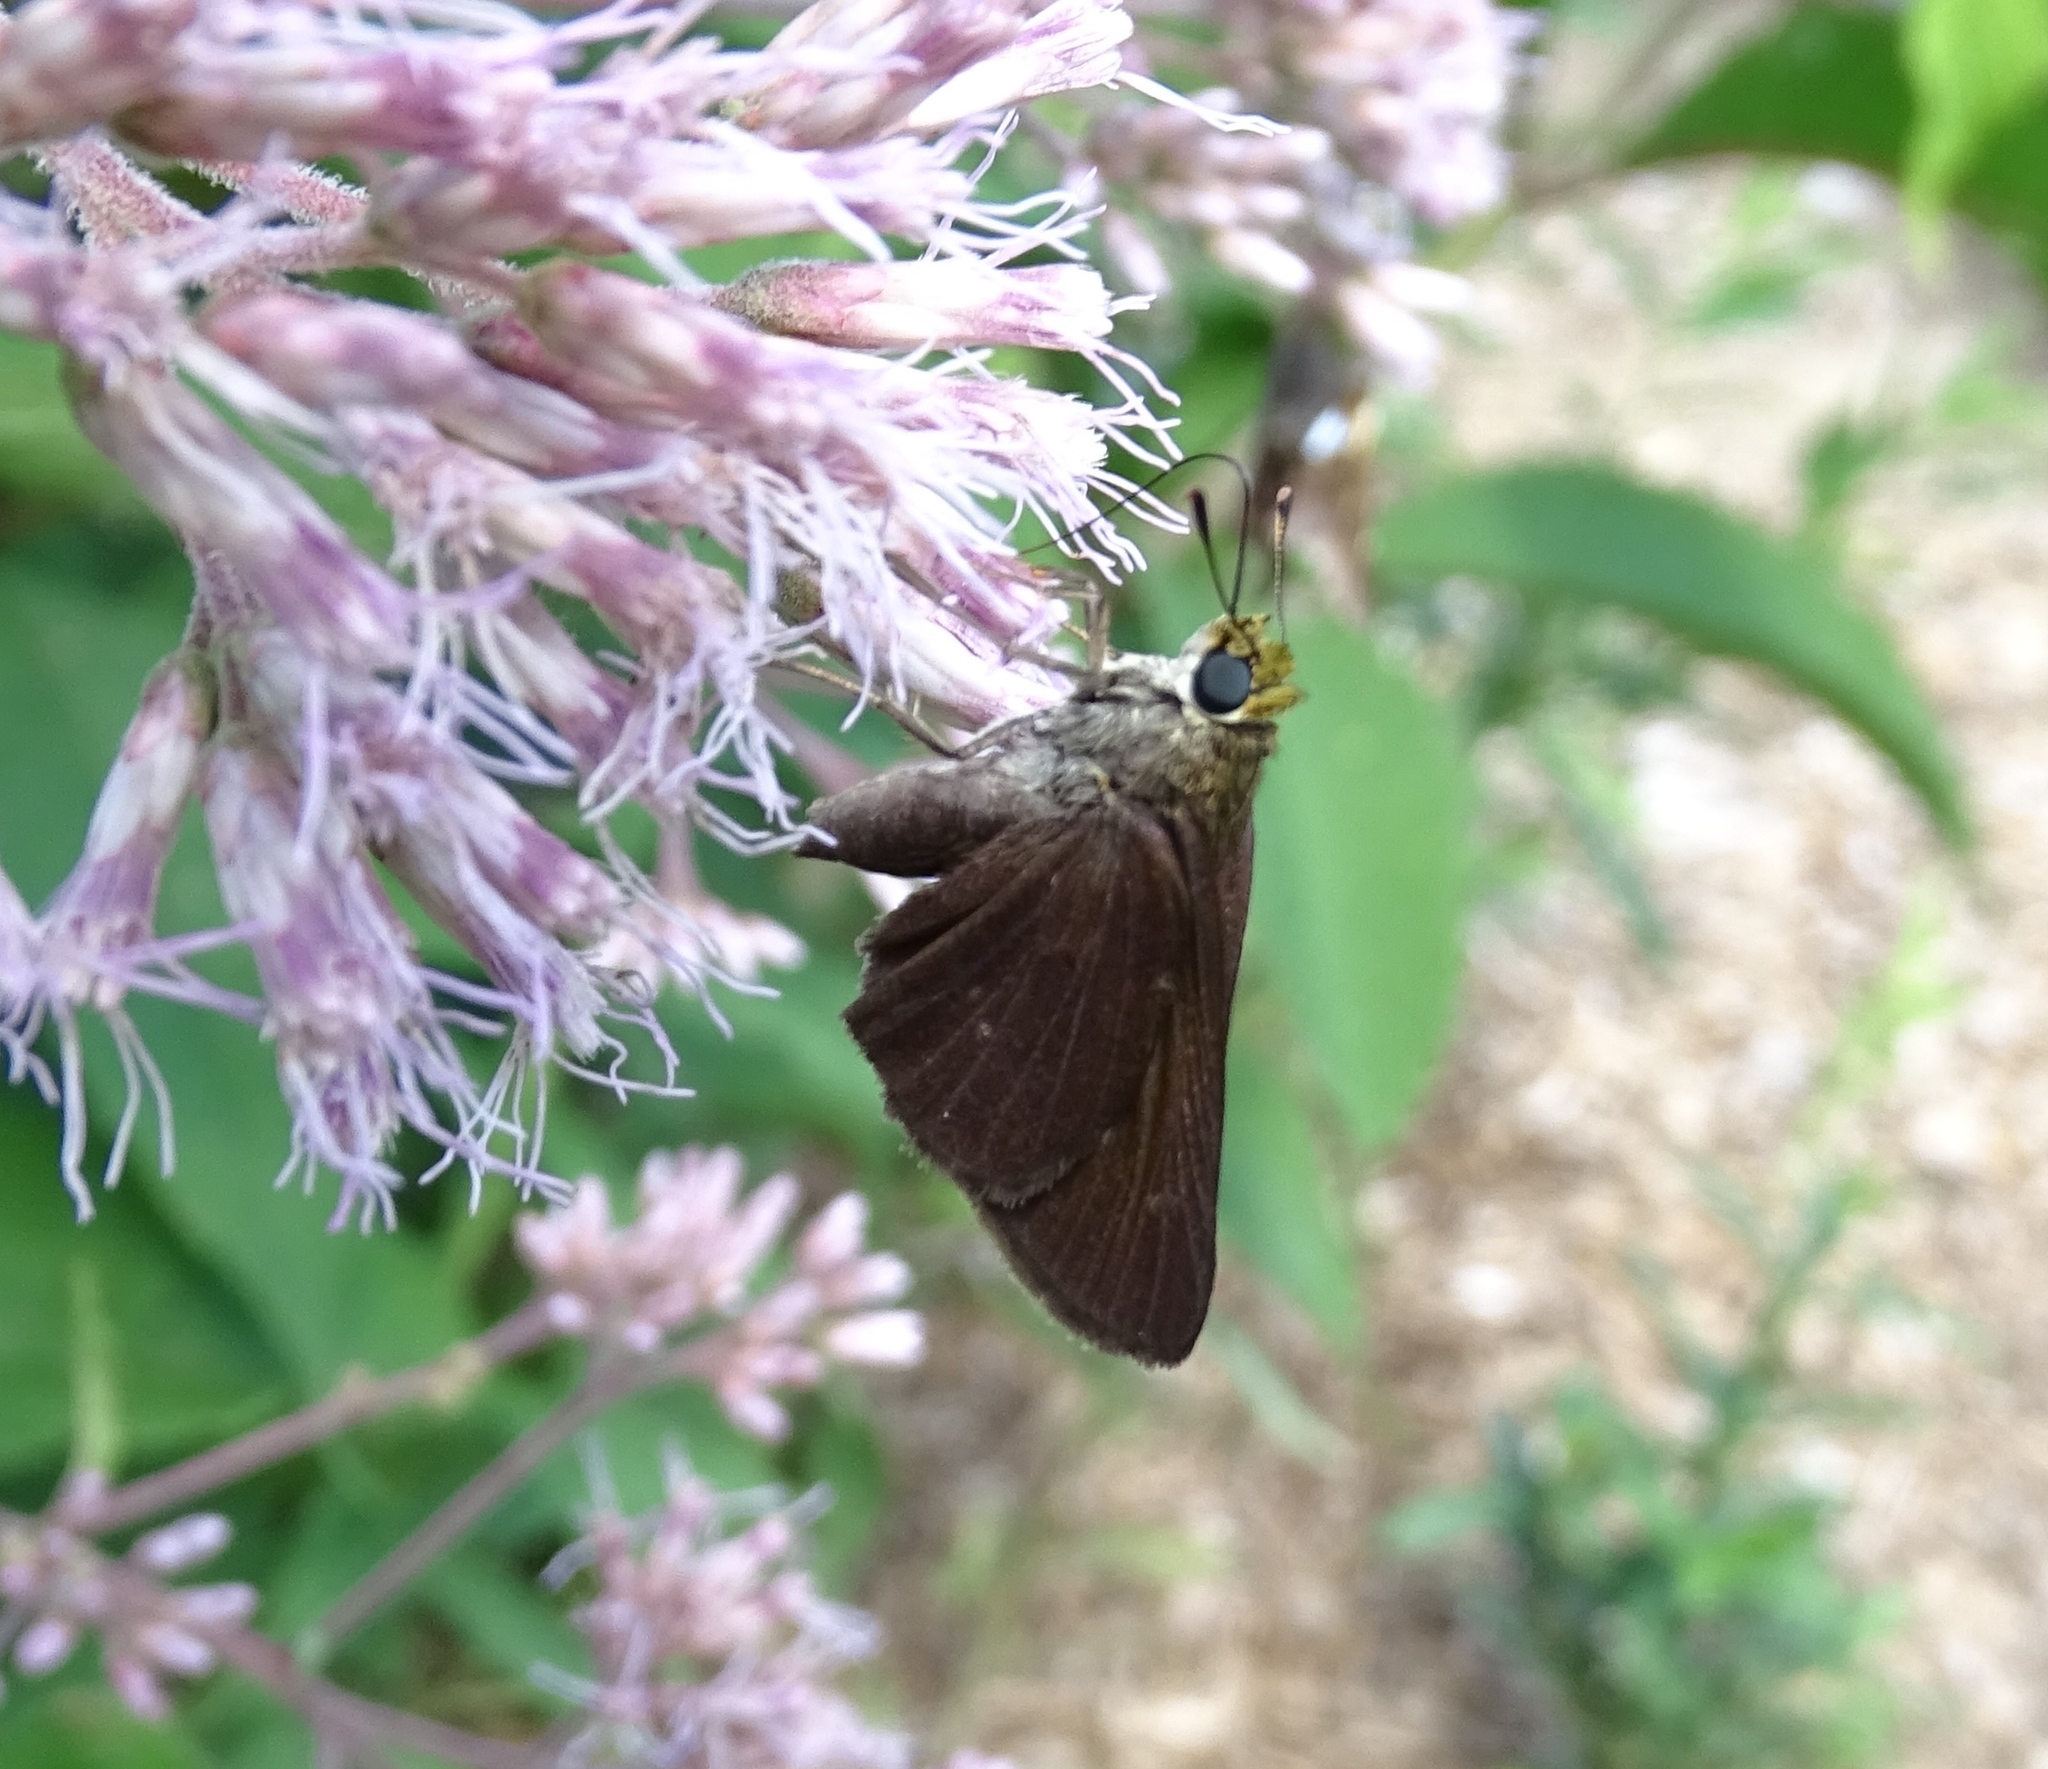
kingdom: Animalia
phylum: Arthropoda
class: Insecta
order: Lepidoptera
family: Hesperiidae
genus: Euphyes
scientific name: Euphyes vestris
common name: Dun skipper
